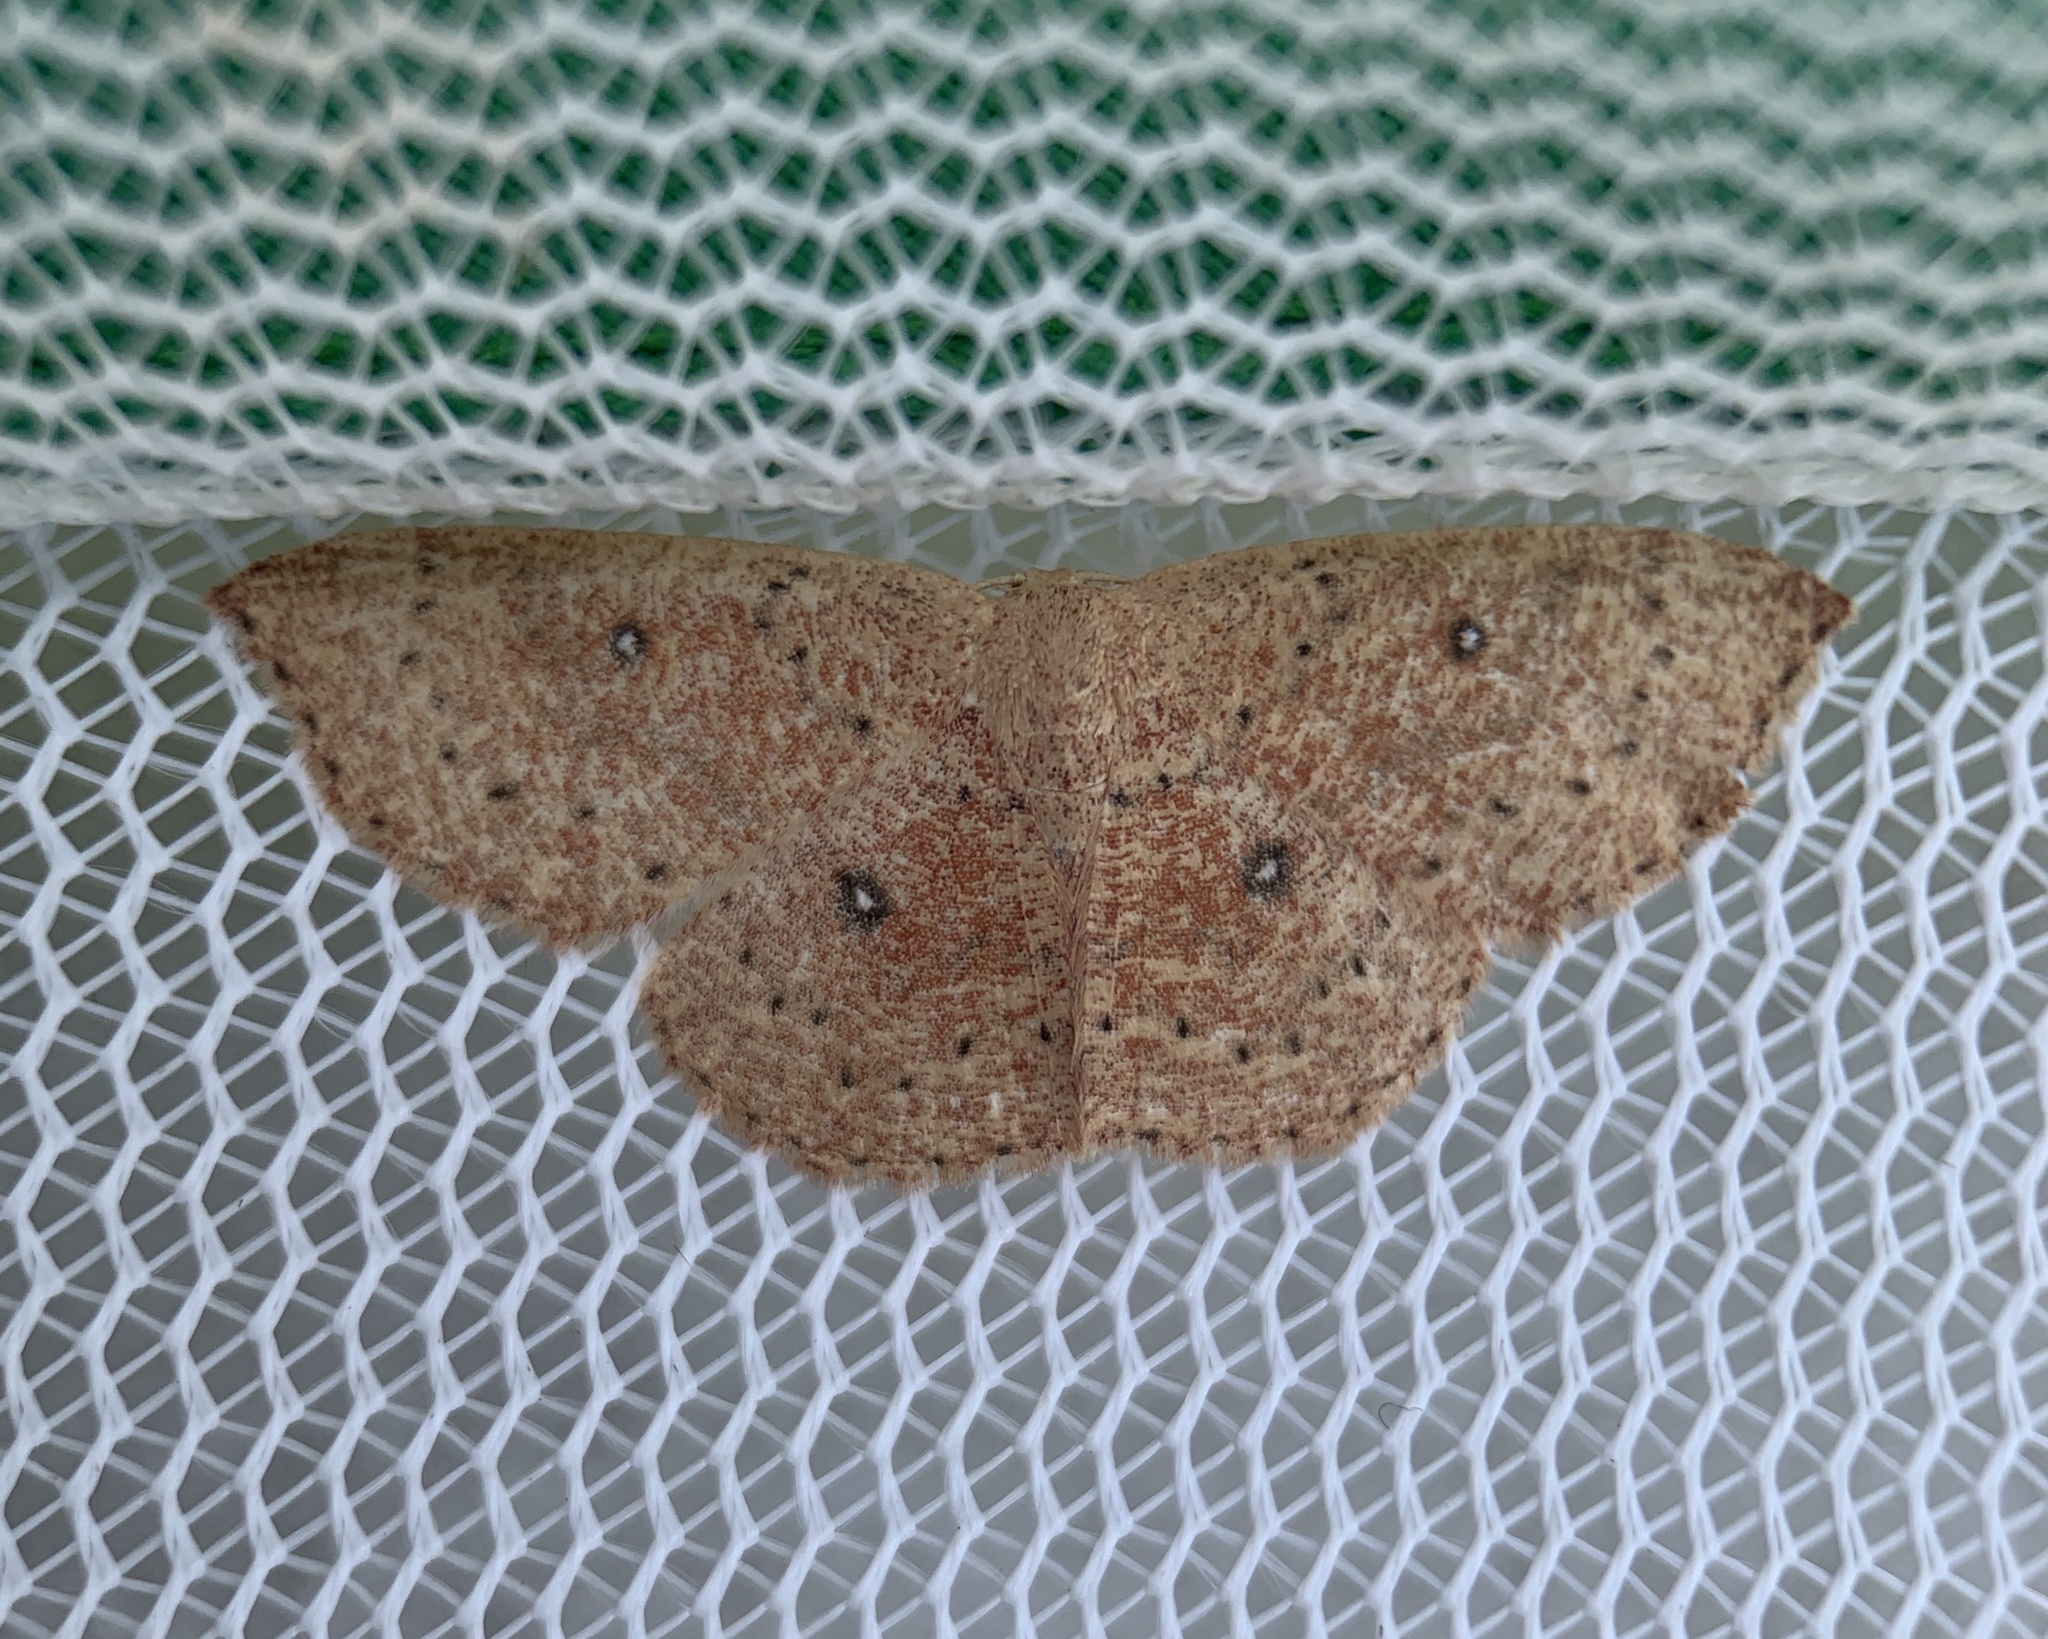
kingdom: Animalia
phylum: Arthropoda
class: Insecta
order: Lepidoptera
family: Geometridae
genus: Cyclophora
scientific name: Cyclophora packardi
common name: Packard's wave
